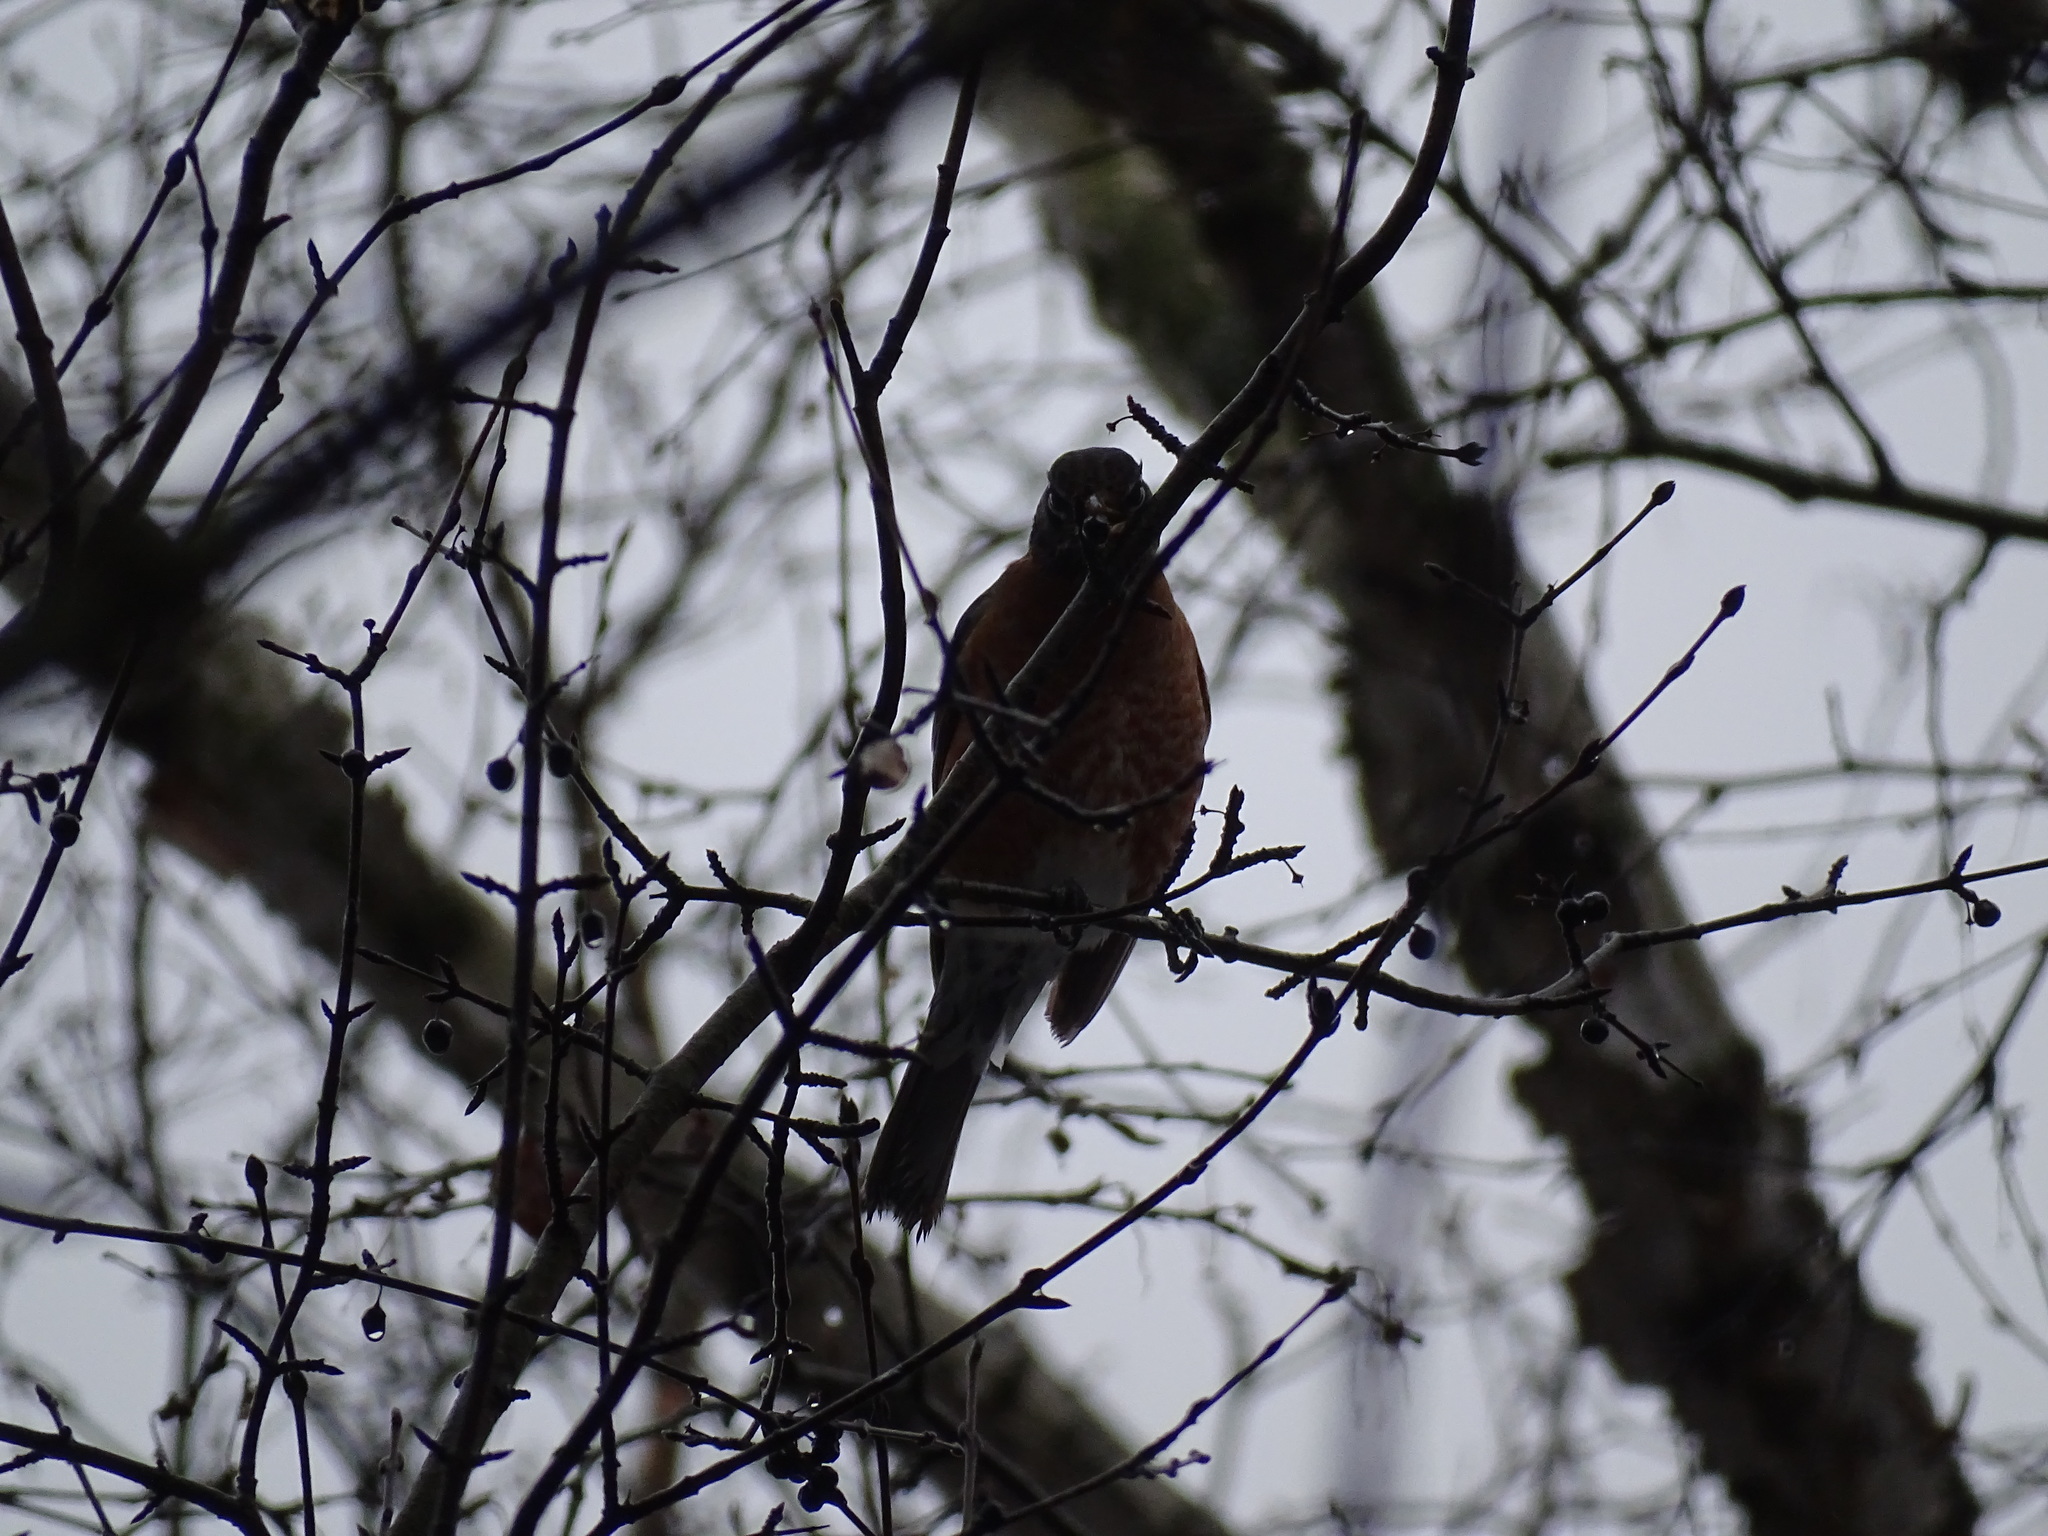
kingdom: Animalia
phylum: Chordata
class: Aves
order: Passeriformes
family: Turdidae
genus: Turdus
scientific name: Turdus migratorius
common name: American robin
